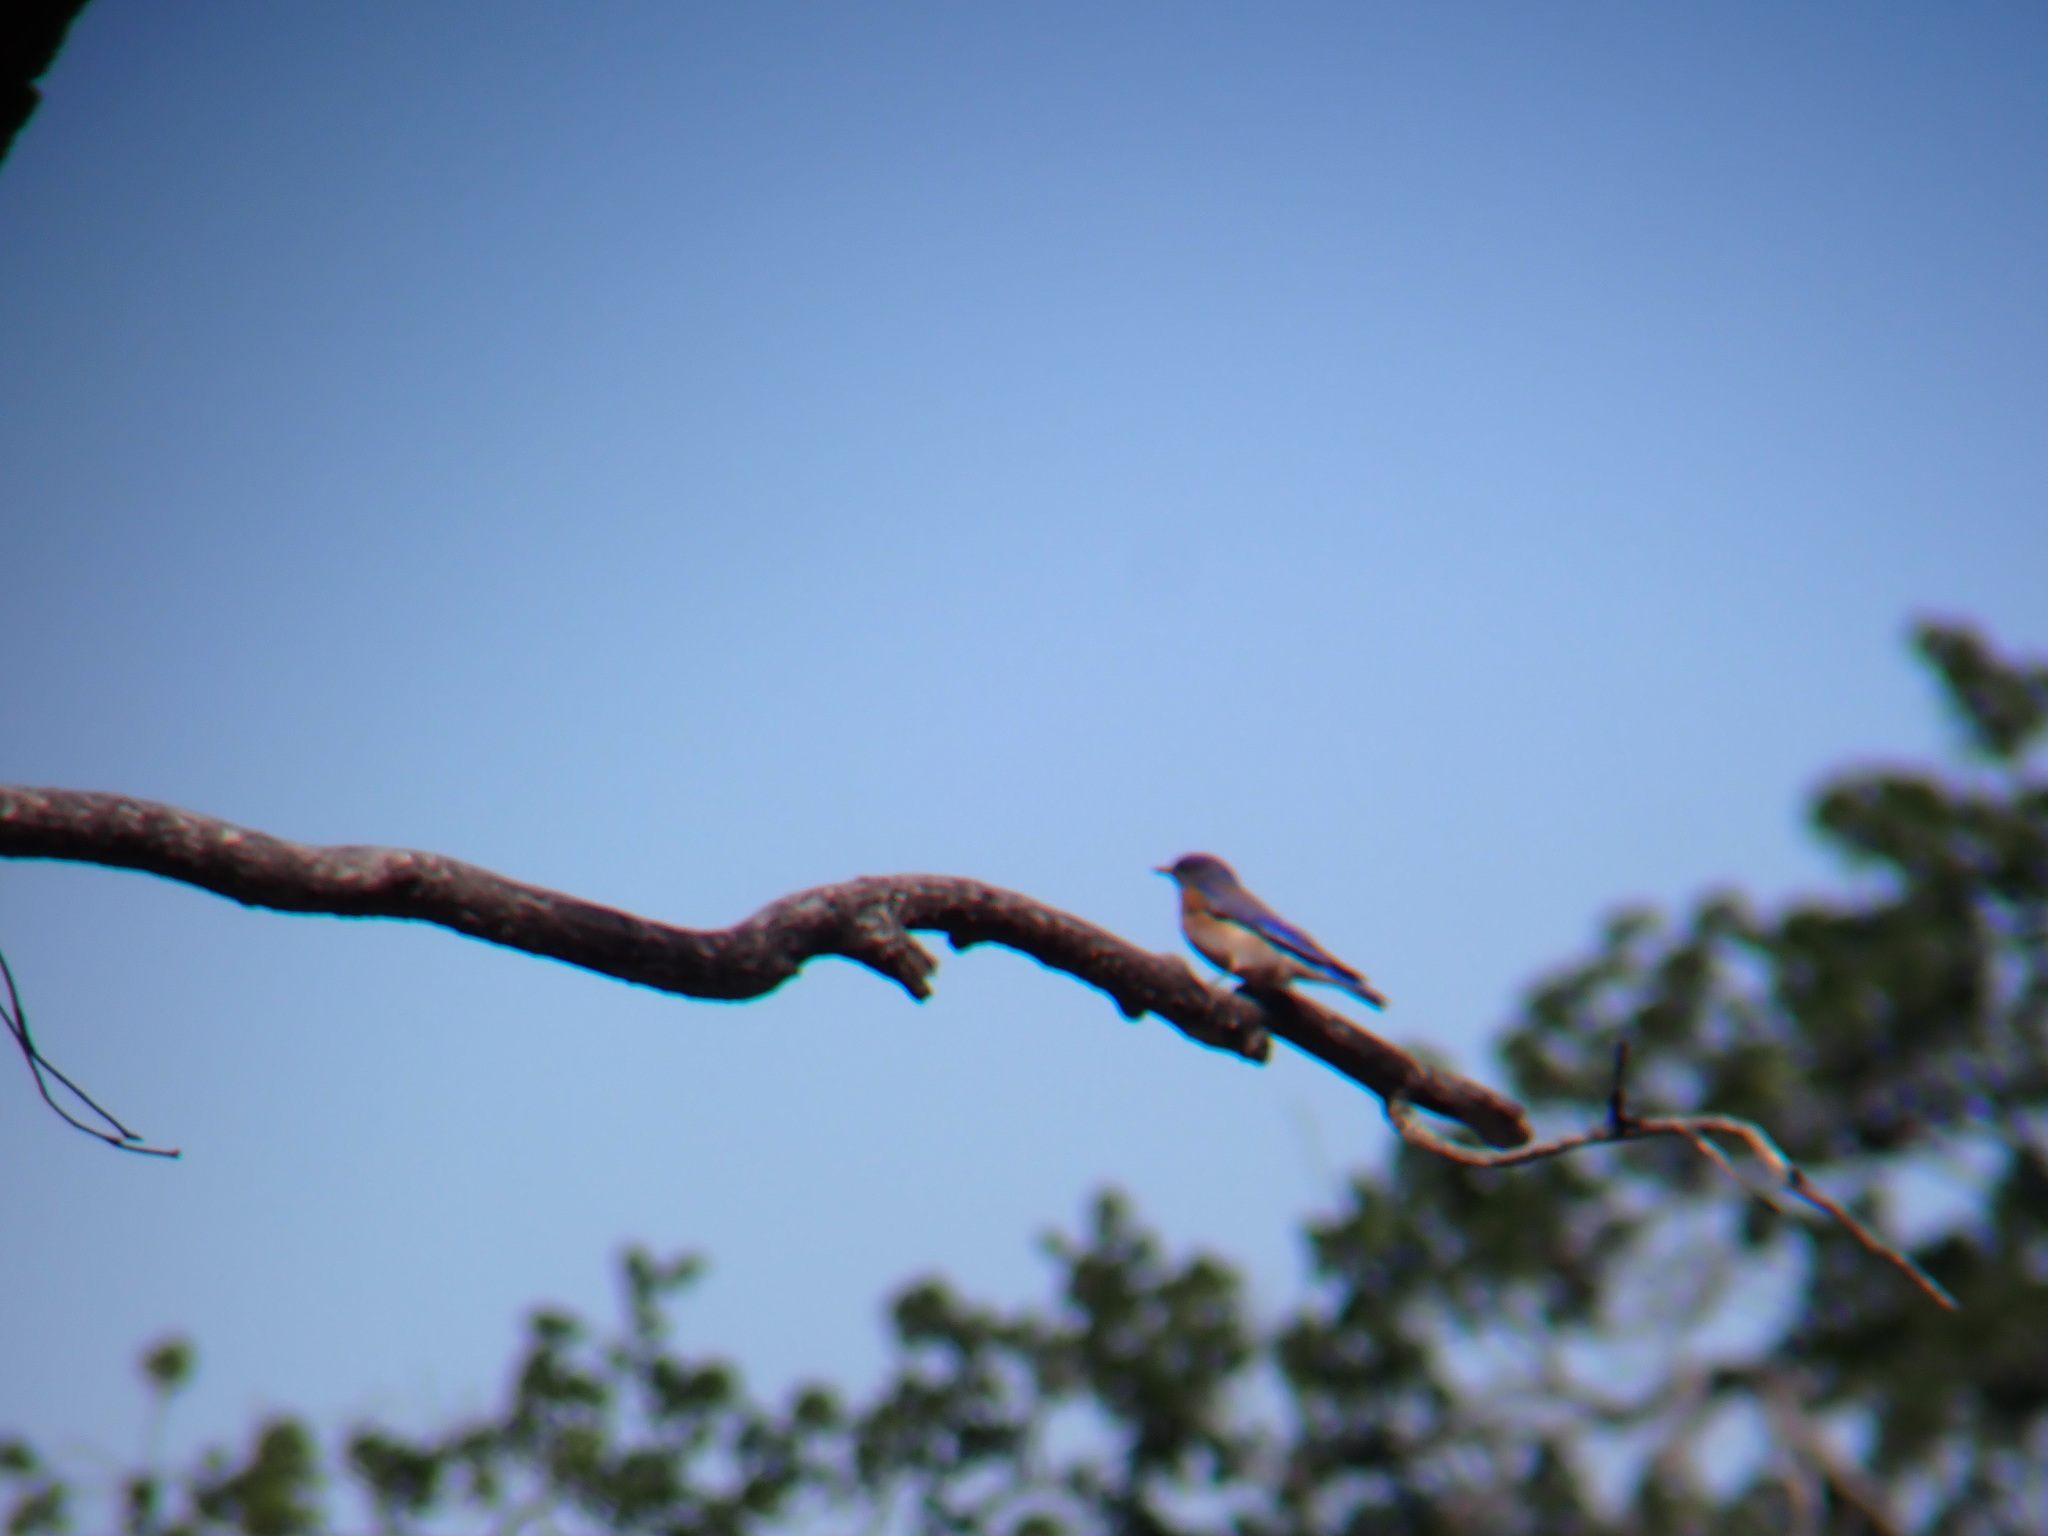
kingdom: Animalia
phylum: Chordata
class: Aves
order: Passeriformes
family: Turdidae
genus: Sialia
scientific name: Sialia mexicana
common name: Western bluebird
